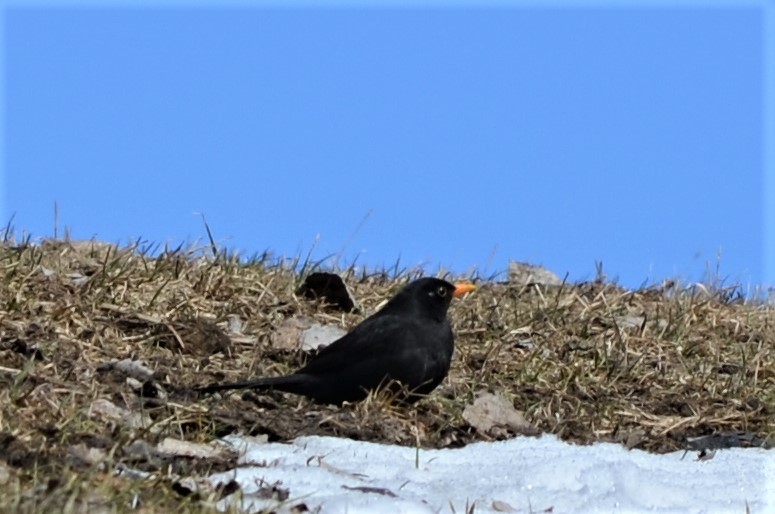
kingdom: Animalia
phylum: Chordata
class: Aves
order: Passeriformes
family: Turdidae
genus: Turdus
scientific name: Turdus merula
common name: Common blackbird
